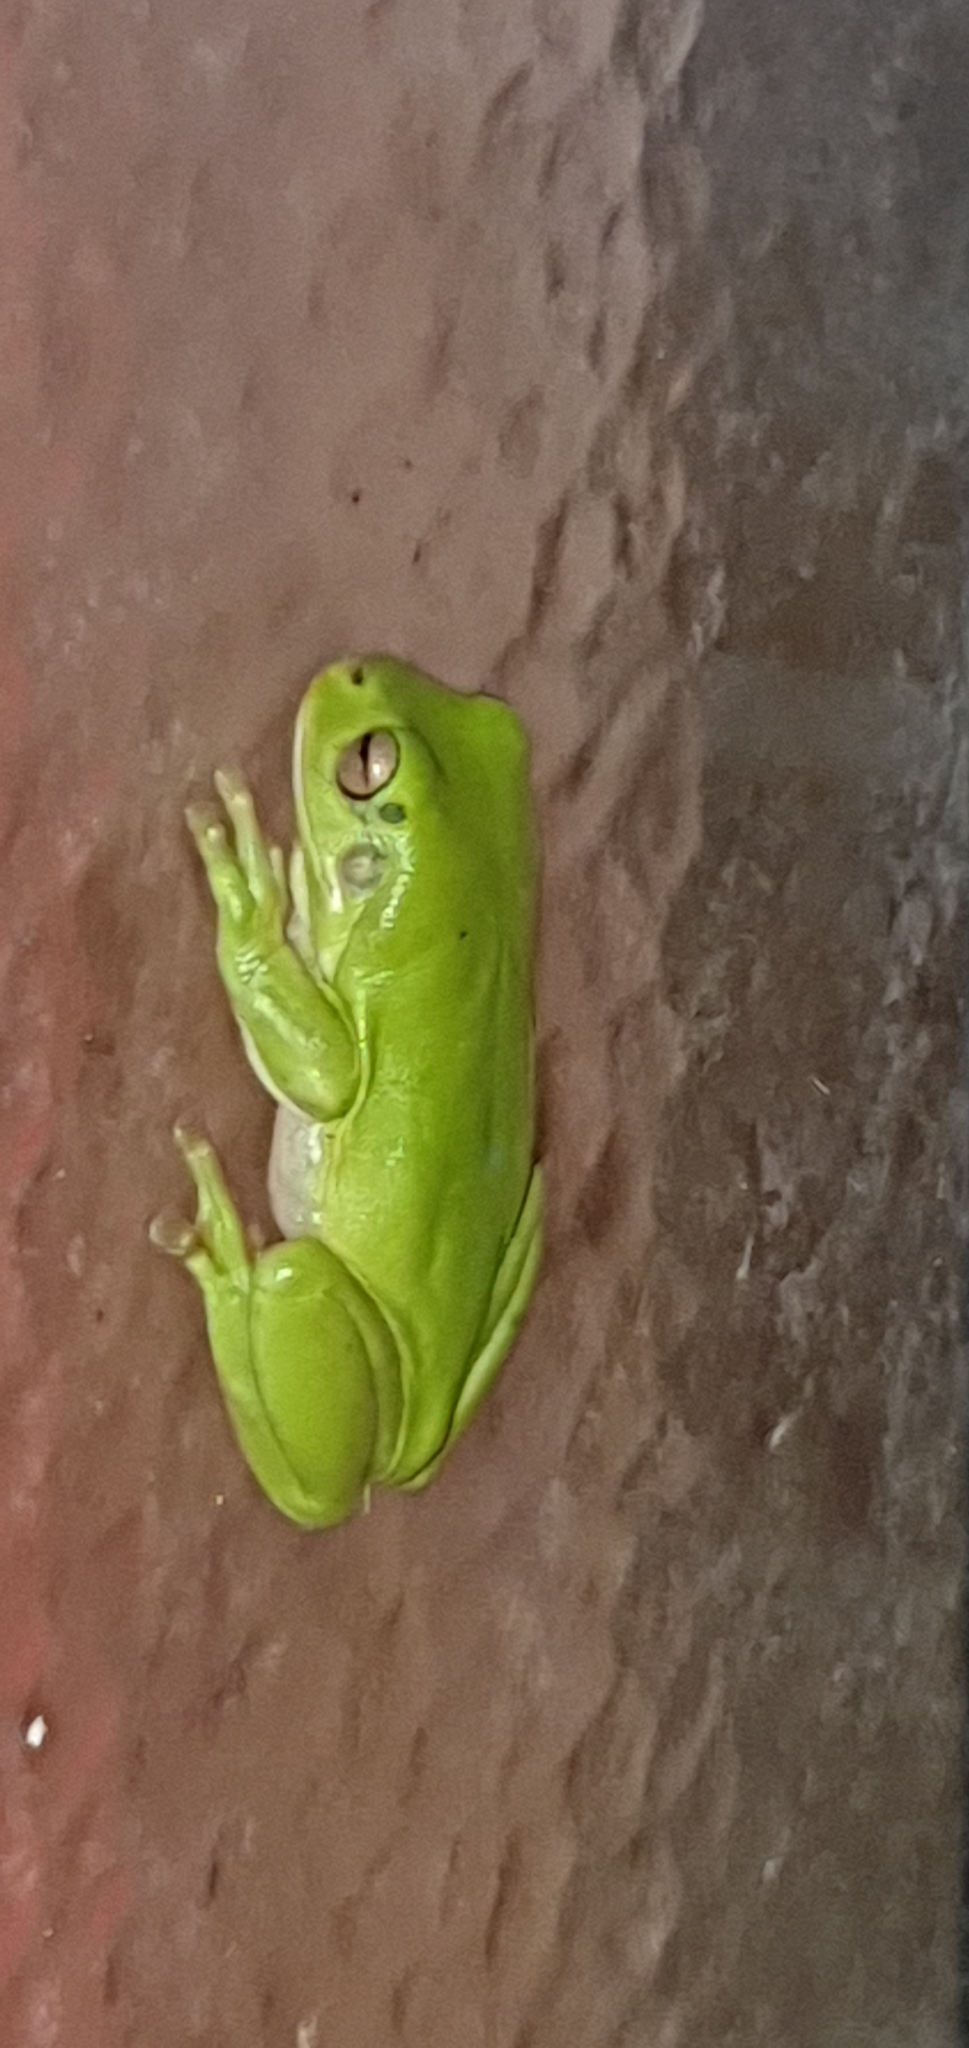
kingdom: Animalia
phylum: Chordata
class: Amphibia
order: Anura
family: Pelodryadidae
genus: Ranoidea
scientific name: Ranoidea caerulea
